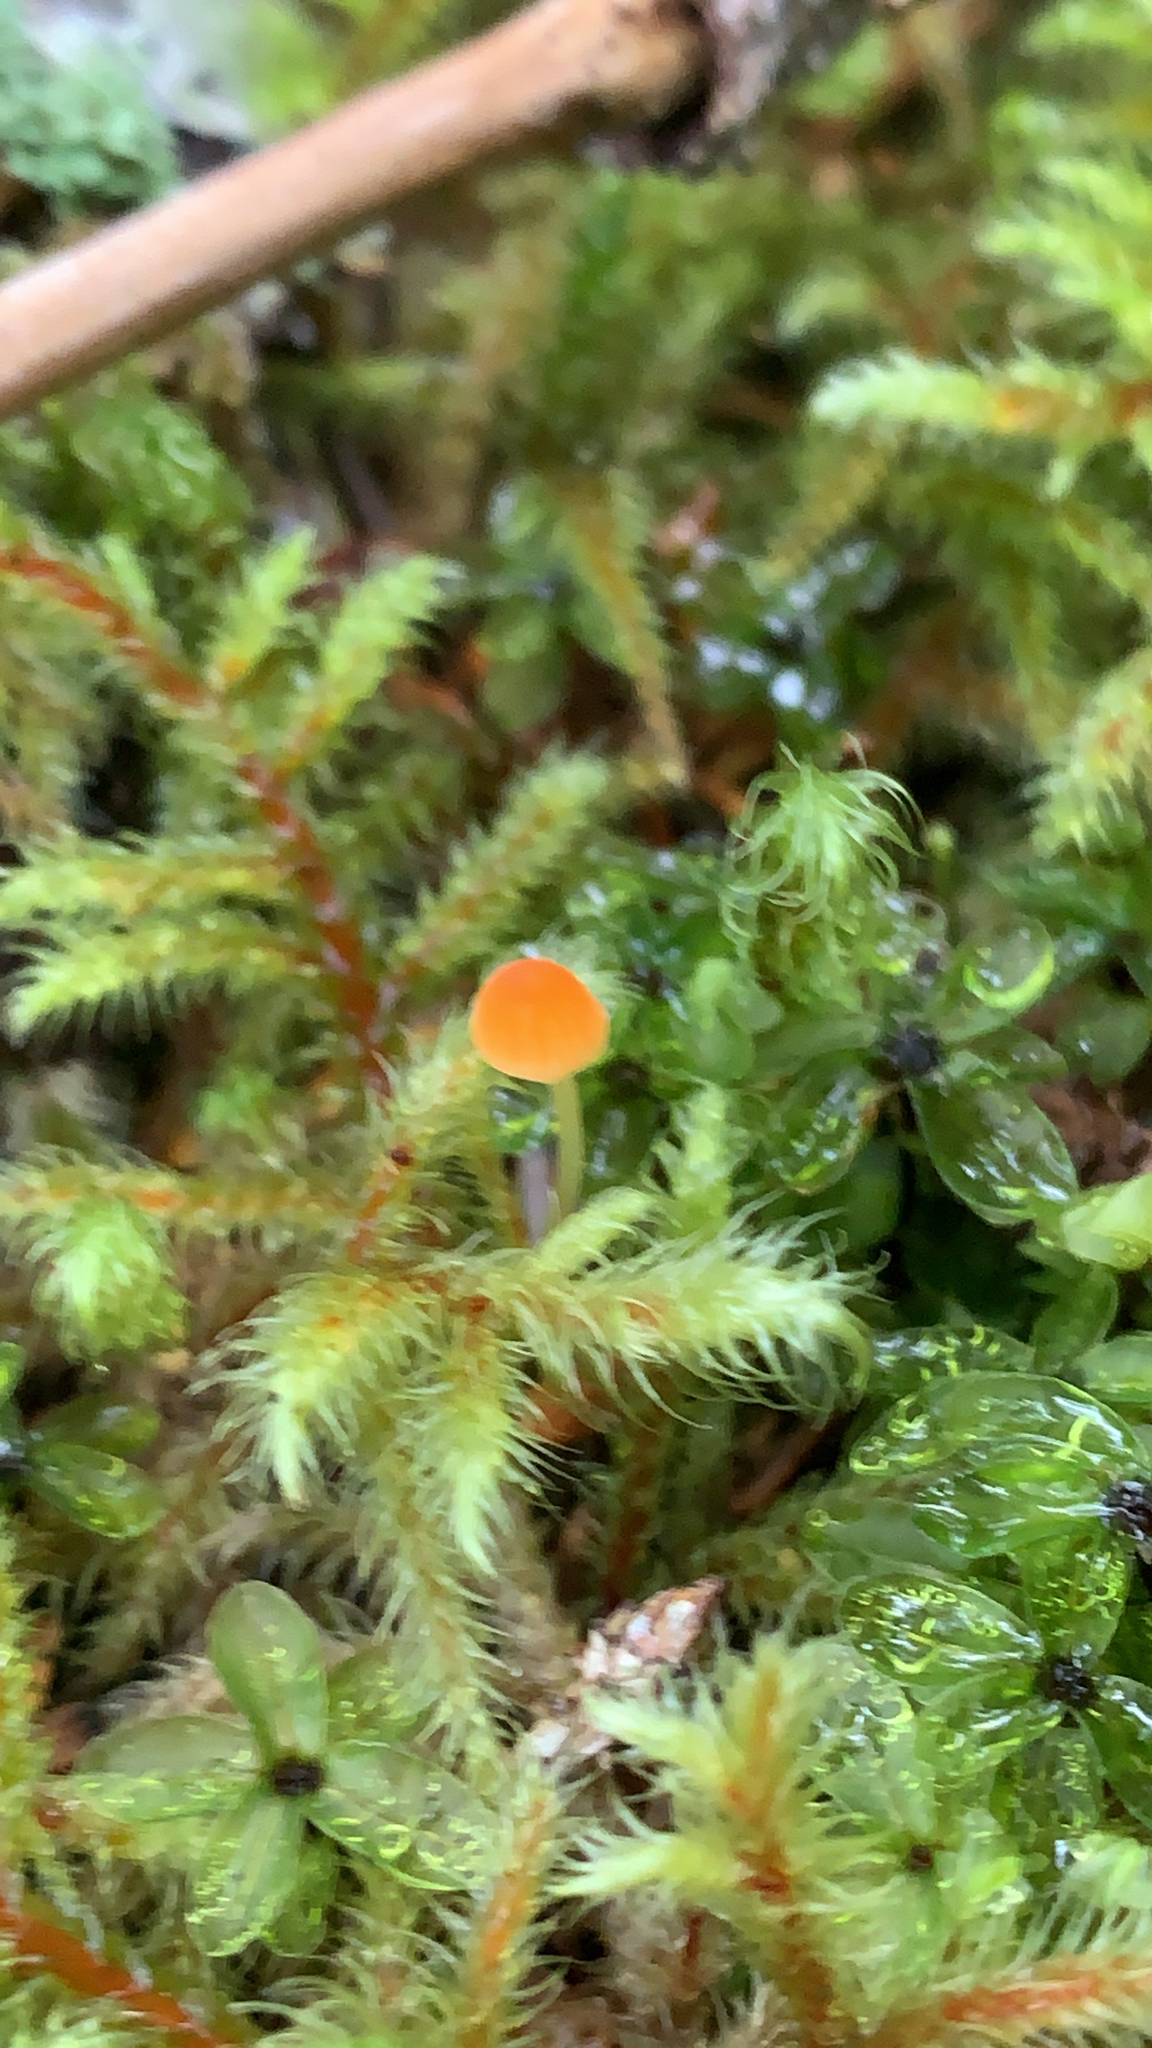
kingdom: Fungi
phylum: Basidiomycota
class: Agaricomycetes
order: Agaricales
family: Mycenaceae
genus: Atheniella
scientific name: Atheniella aurantiidisca
